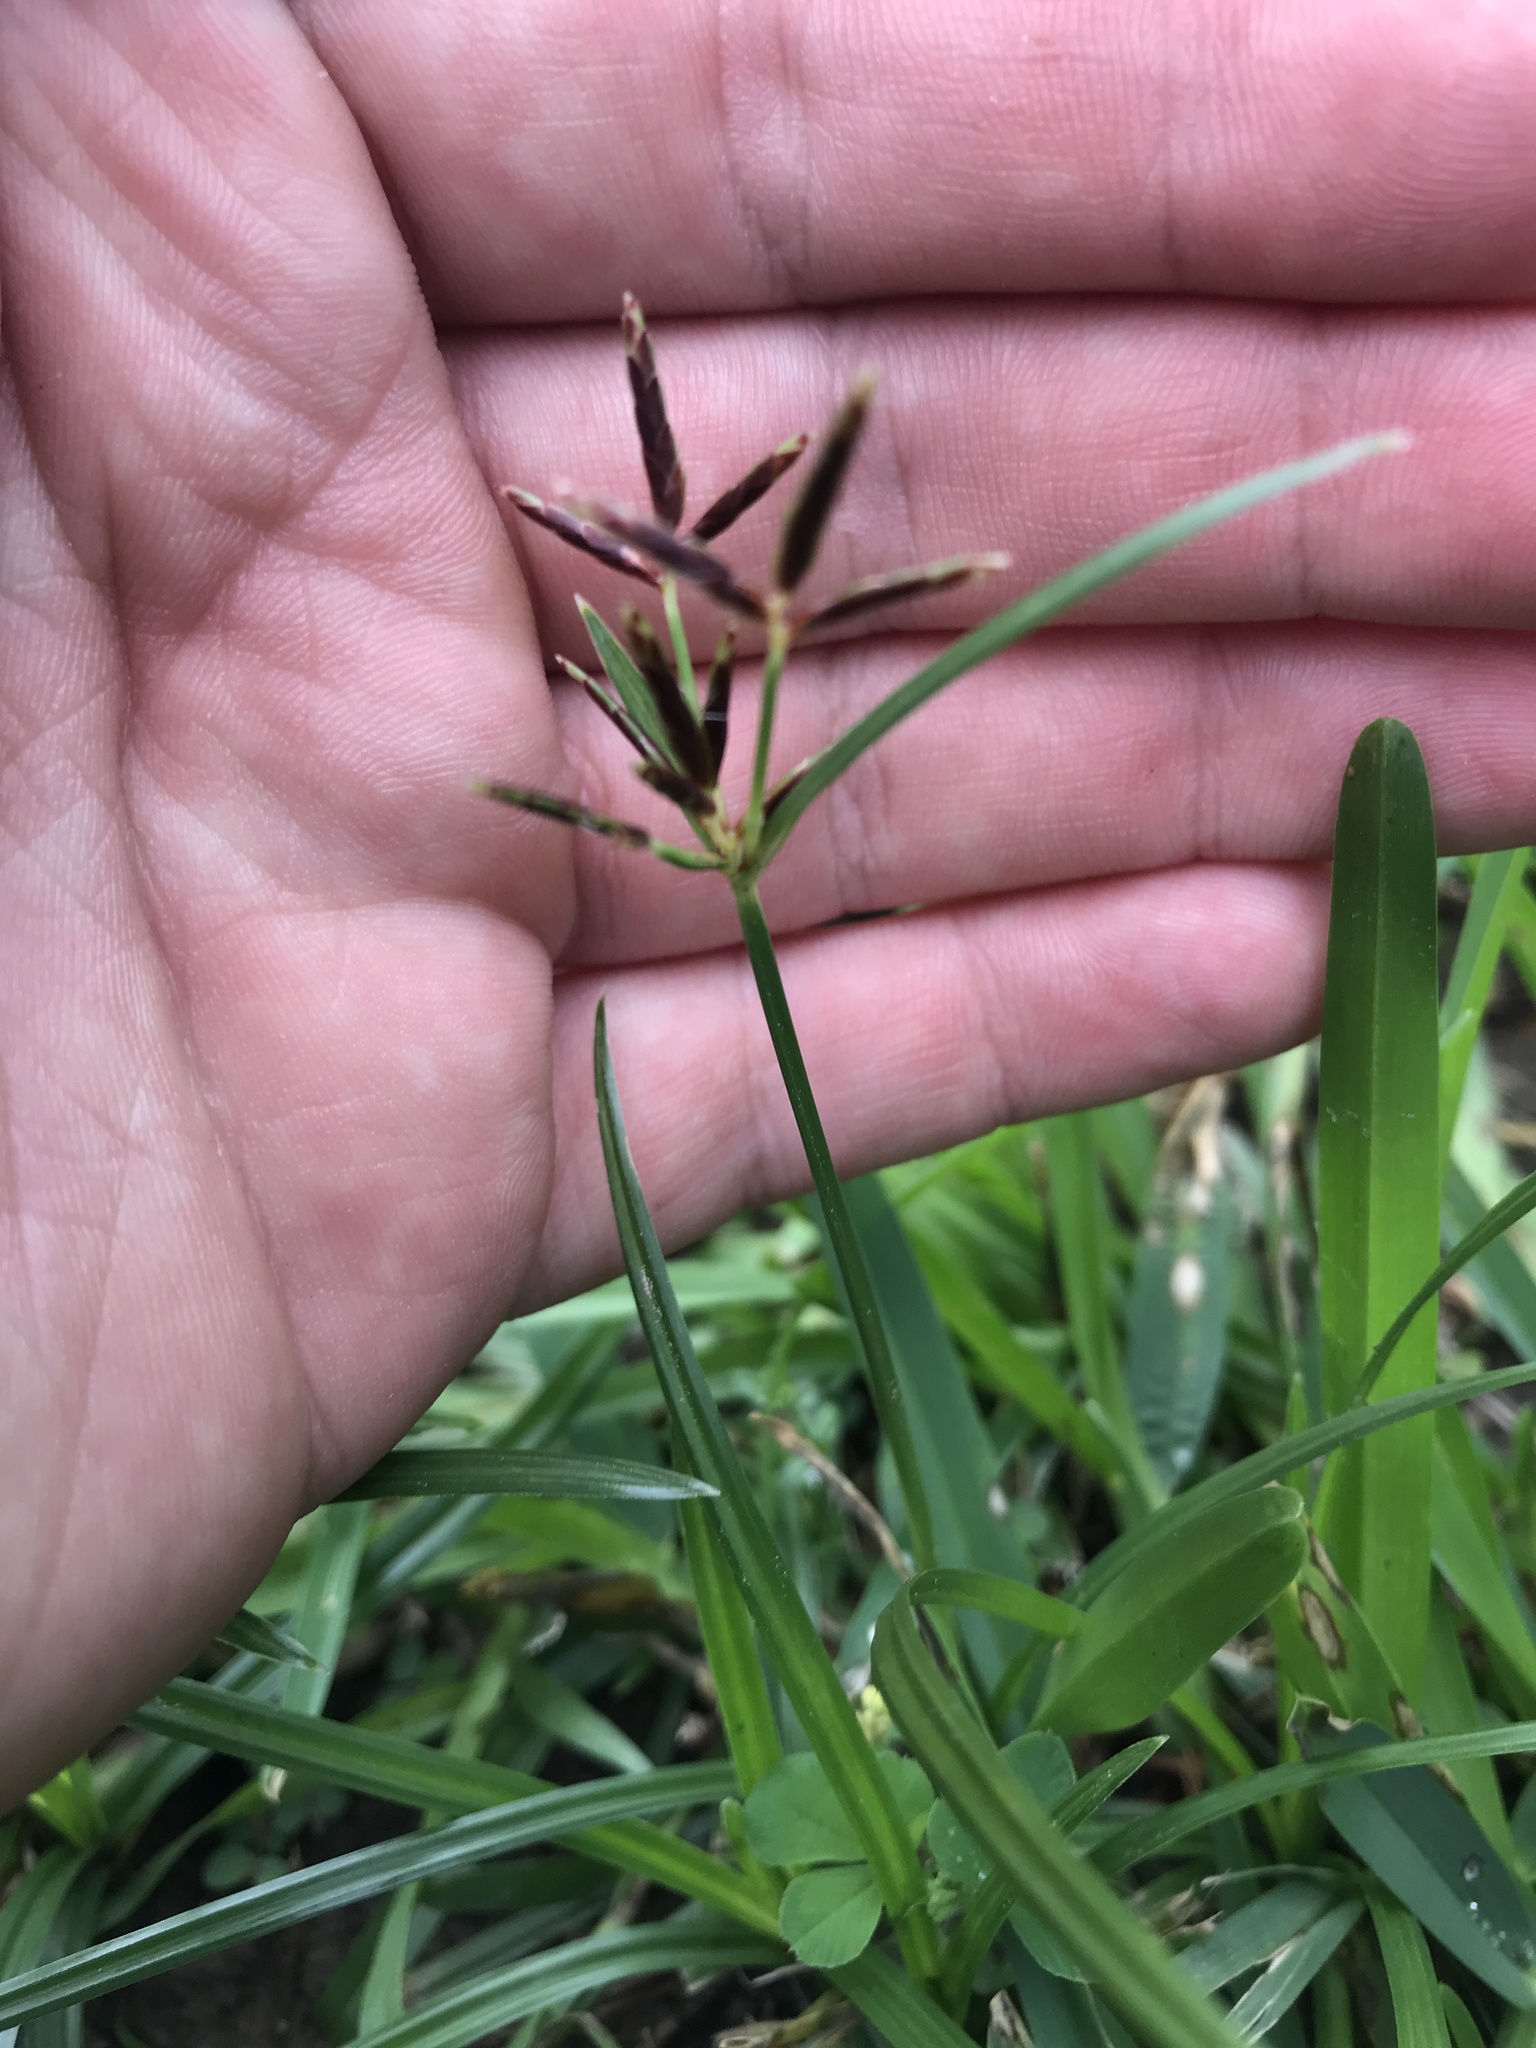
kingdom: Plantae
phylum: Tracheophyta
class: Liliopsida
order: Poales
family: Cyperaceae
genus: Cyperus
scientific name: Cyperus rotundus
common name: Nutgrass
